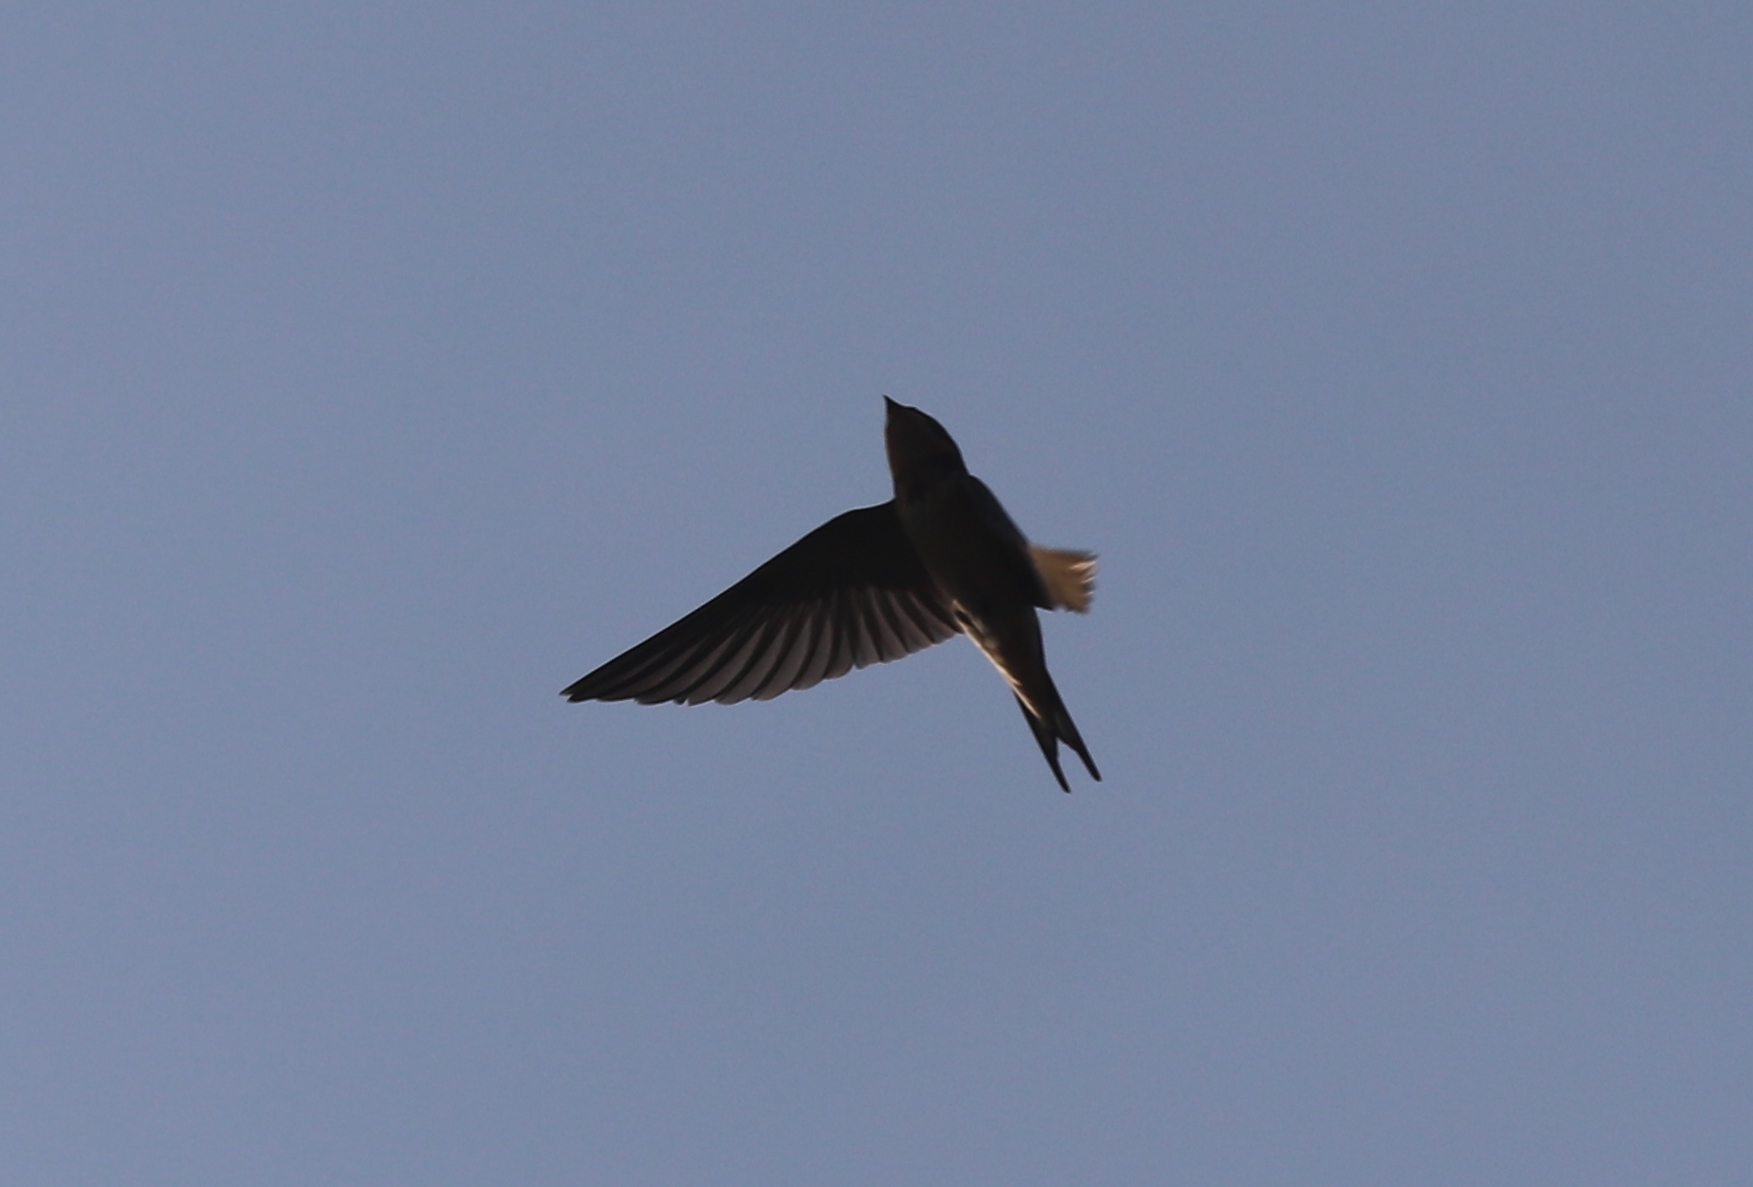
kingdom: Animalia
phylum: Chordata
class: Aves
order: Passeriformes
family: Hirundinidae
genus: Hirundo
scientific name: Hirundo rustica
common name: Barn swallow
